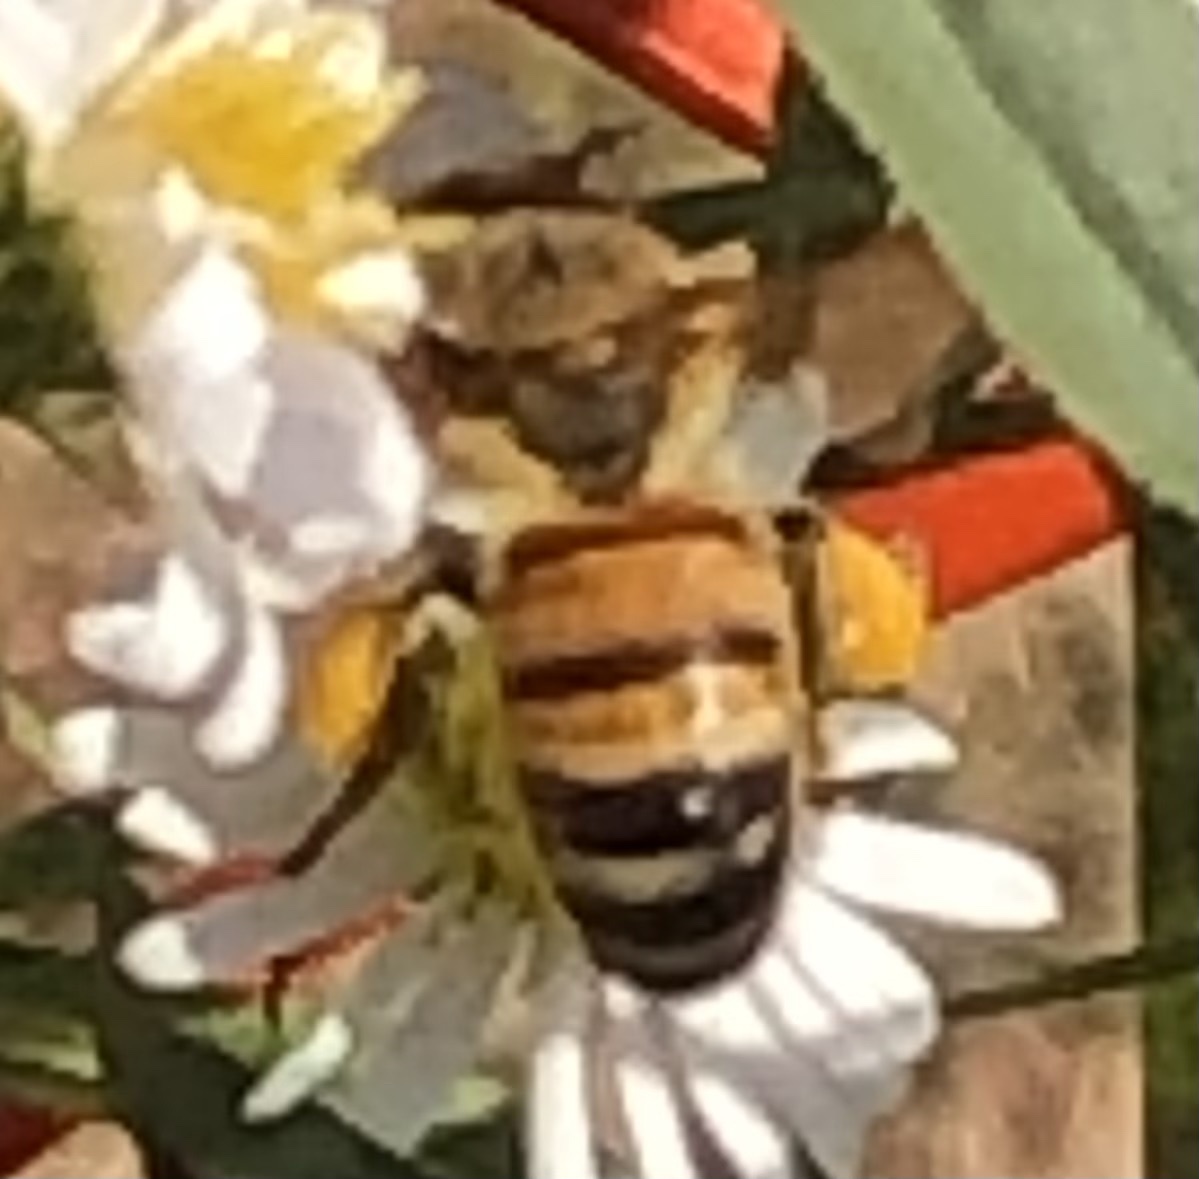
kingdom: Animalia
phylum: Arthropoda
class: Insecta
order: Hymenoptera
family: Apidae
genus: Apis
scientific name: Apis mellifera
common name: Honey bee
